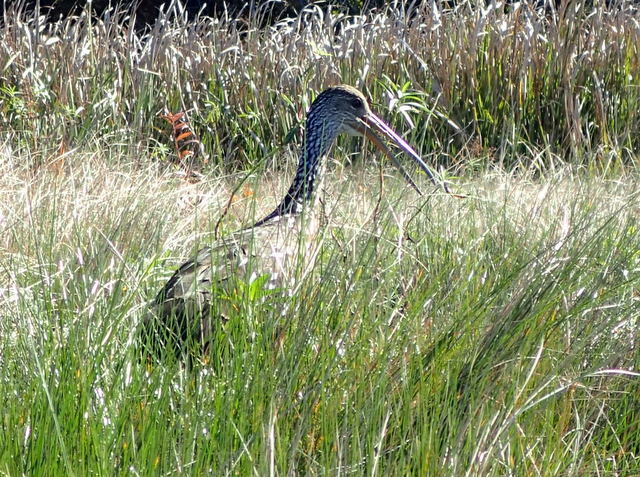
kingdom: Animalia
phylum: Chordata
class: Aves
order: Gruiformes
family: Aramidae
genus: Aramus
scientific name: Aramus guarauna
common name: Limpkin
